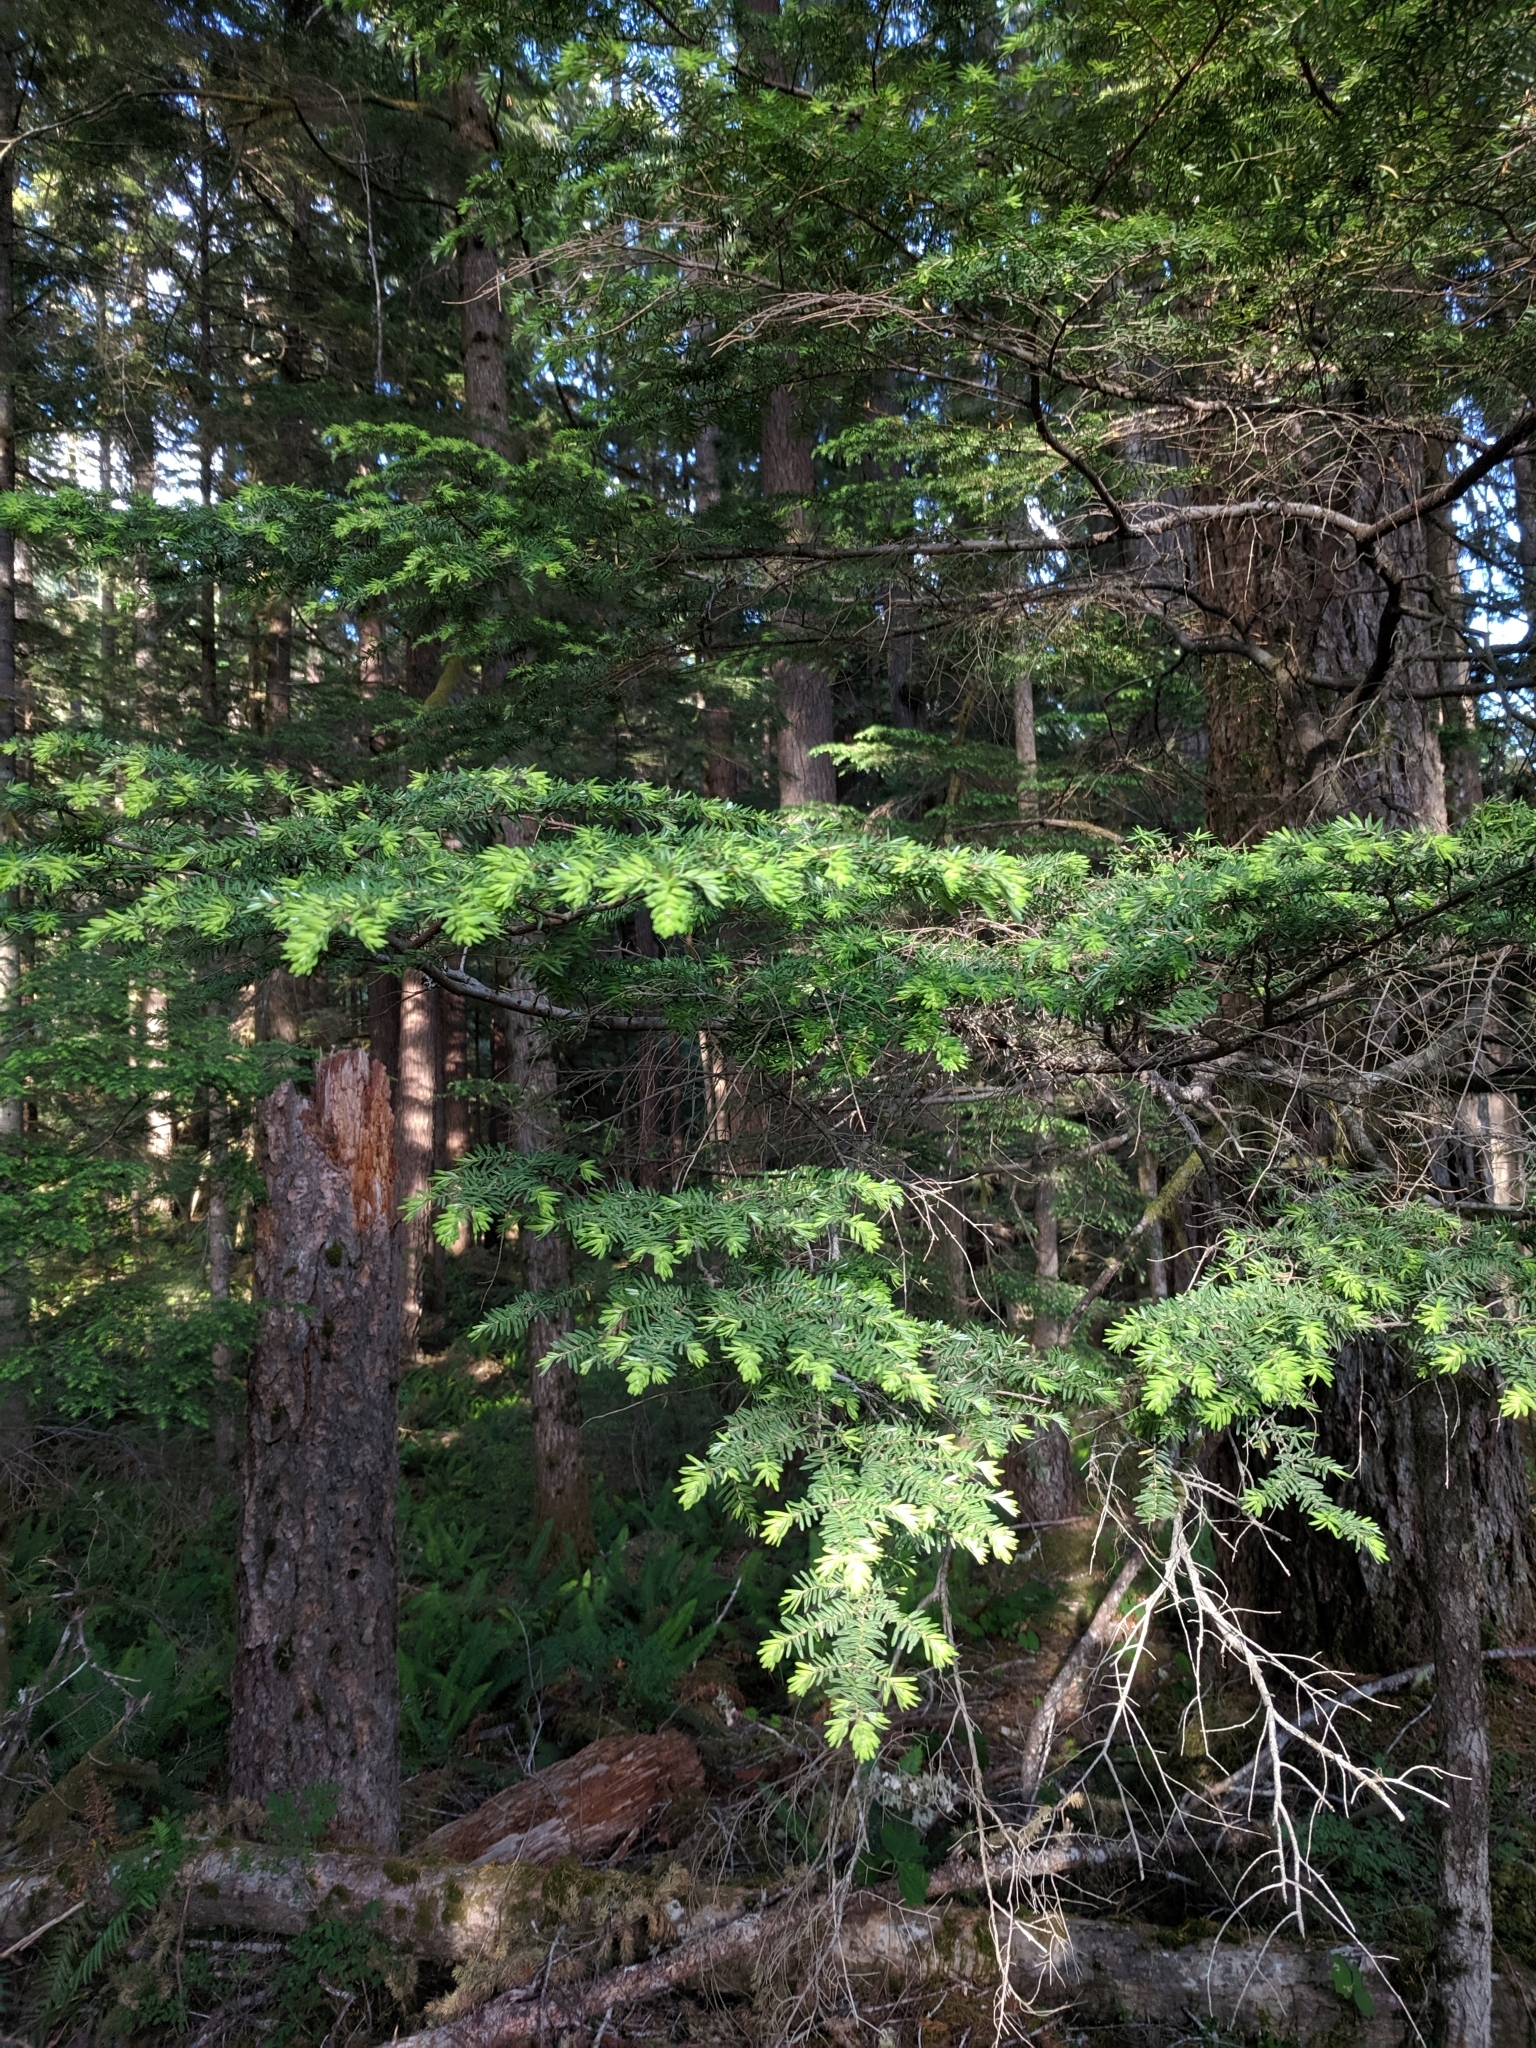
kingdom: Plantae
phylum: Tracheophyta
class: Pinopsida
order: Pinales
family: Pinaceae
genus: Tsuga
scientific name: Tsuga heterophylla
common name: Western hemlock
